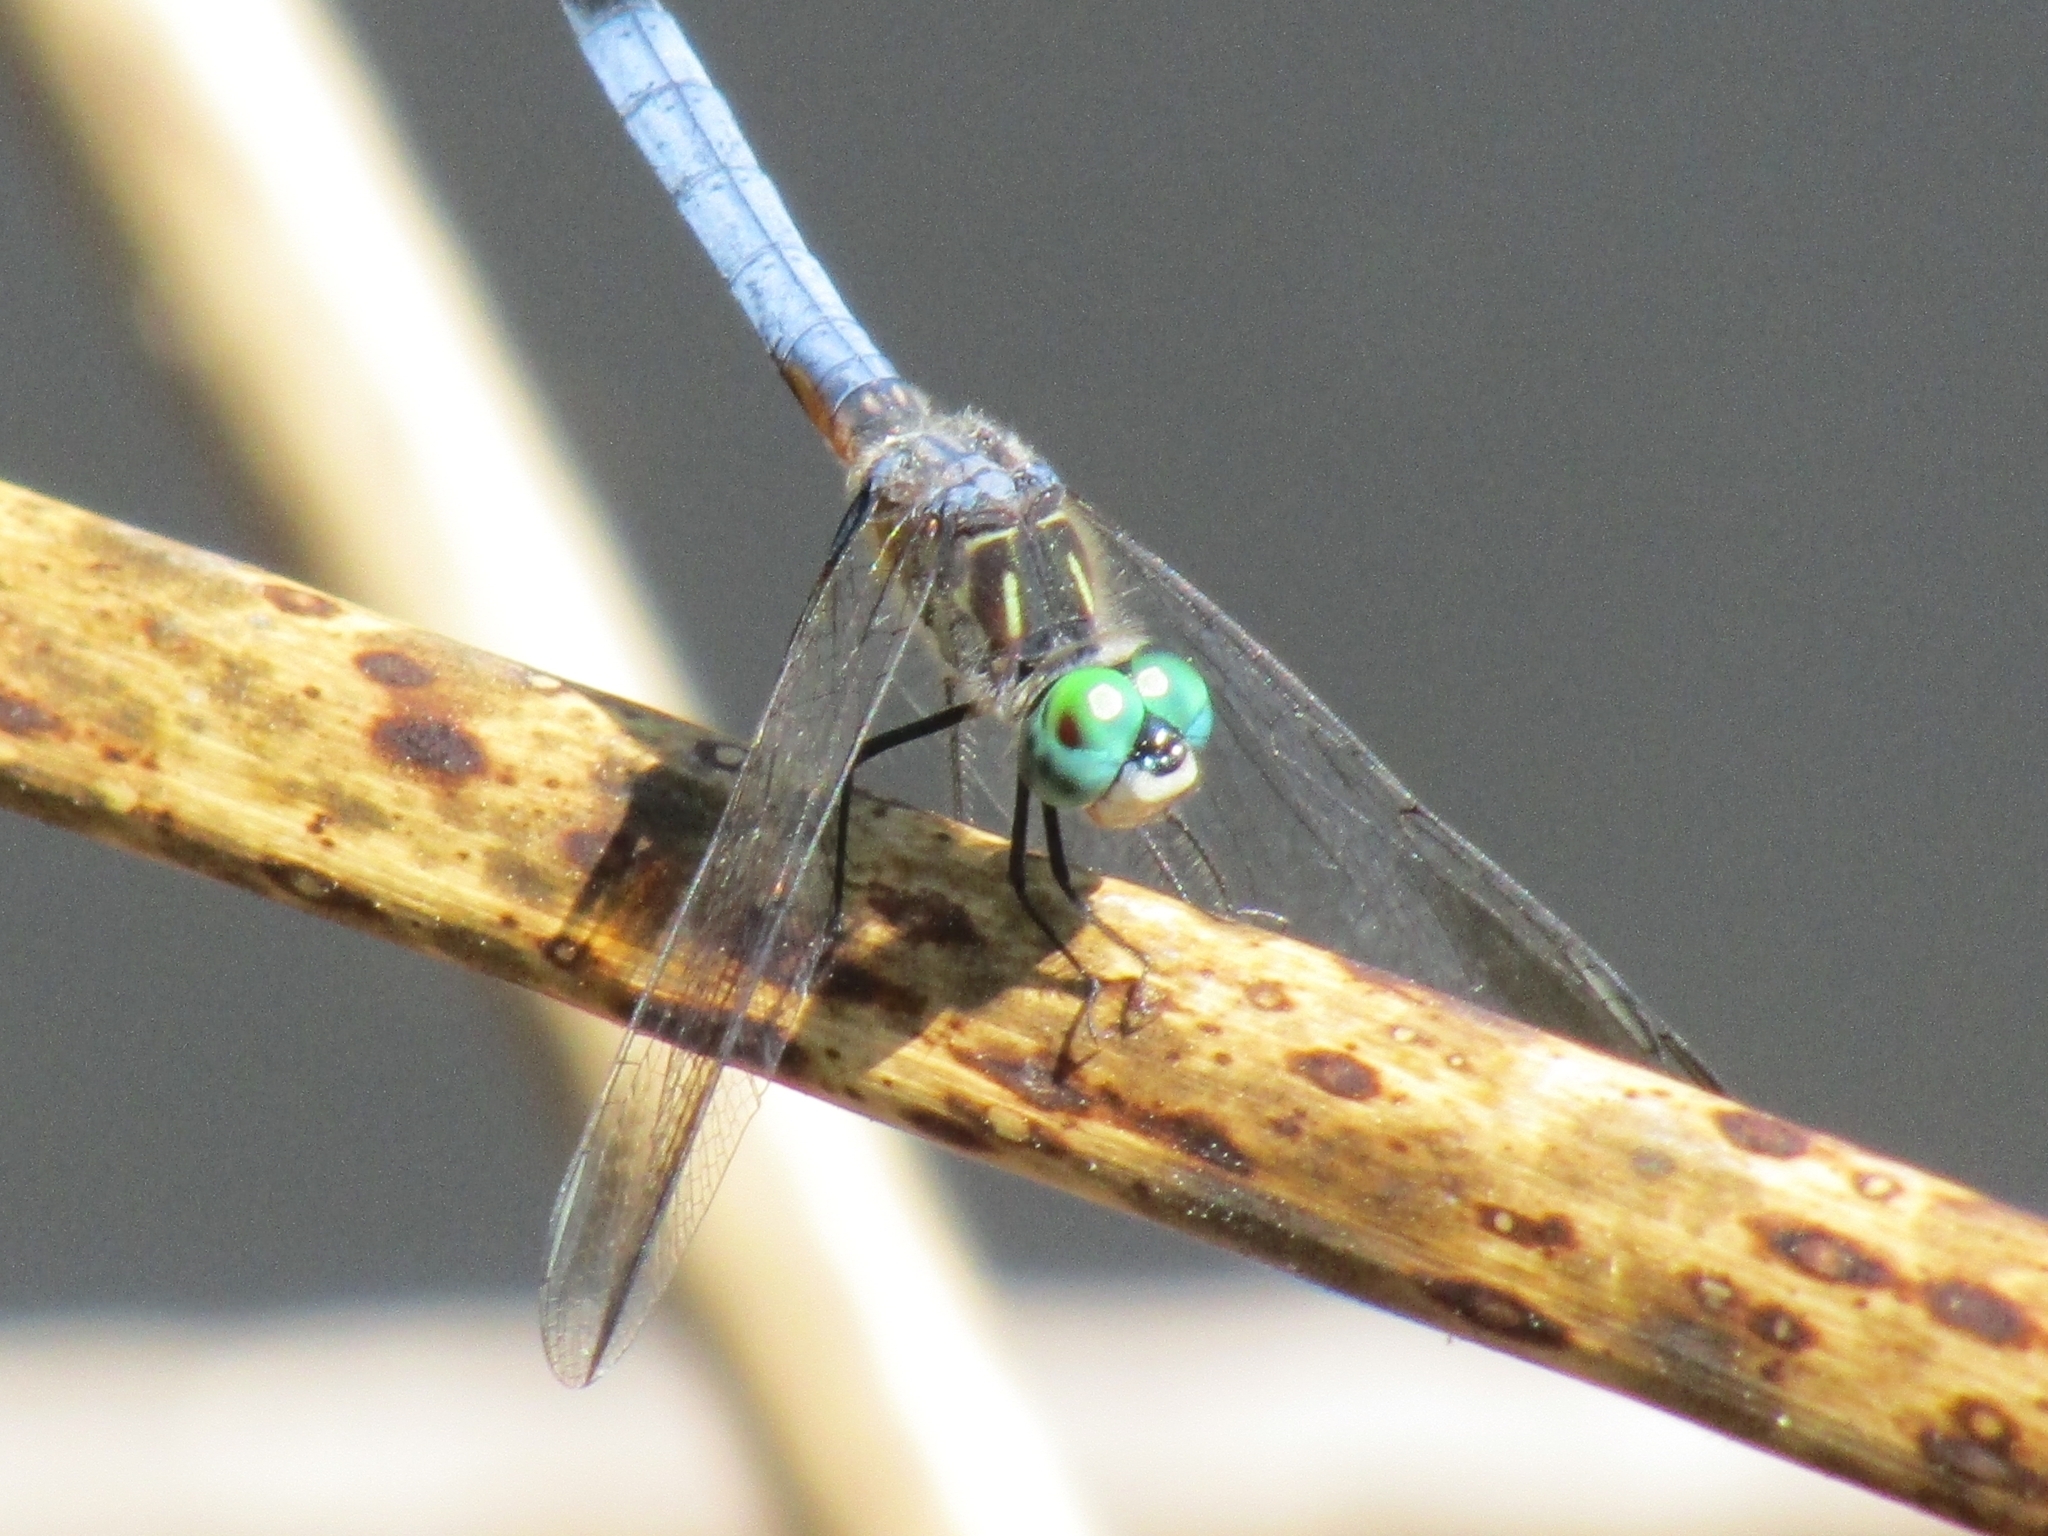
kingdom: Animalia
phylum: Arthropoda
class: Insecta
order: Odonata
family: Libellulidae
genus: Pachydiplax
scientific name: Pachydiplax longipennis
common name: Blue dasher
